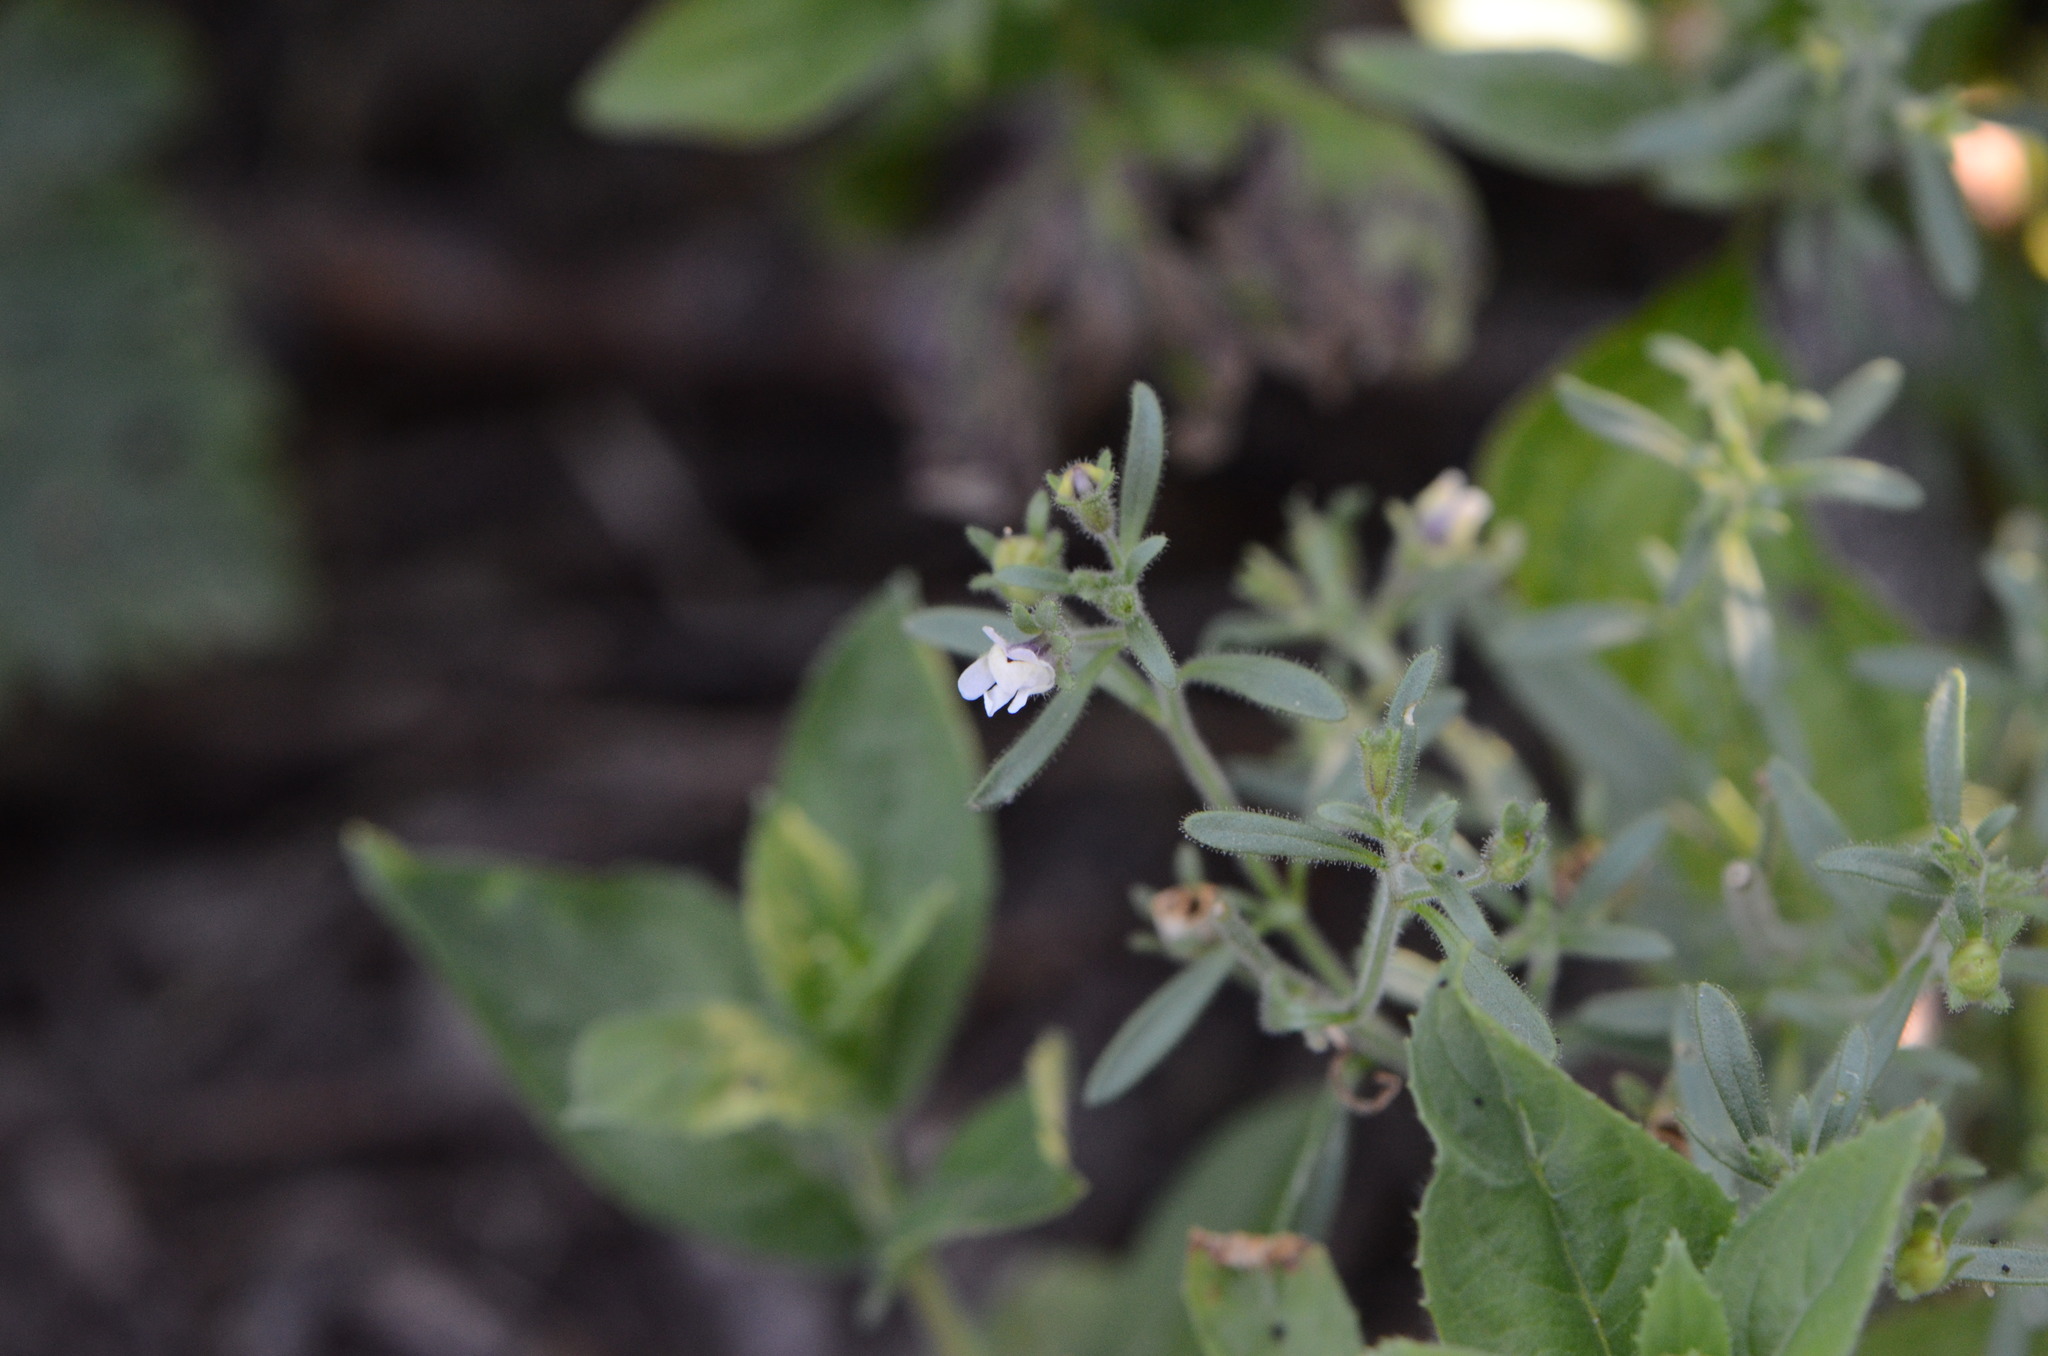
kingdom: Plantae
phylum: Tracheophyta
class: Magnoliopsida
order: Lamiales
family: Plantaginaceae
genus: Chaenorhinum
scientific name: Chaenorhinum minus
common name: Dwarf snapdragon
